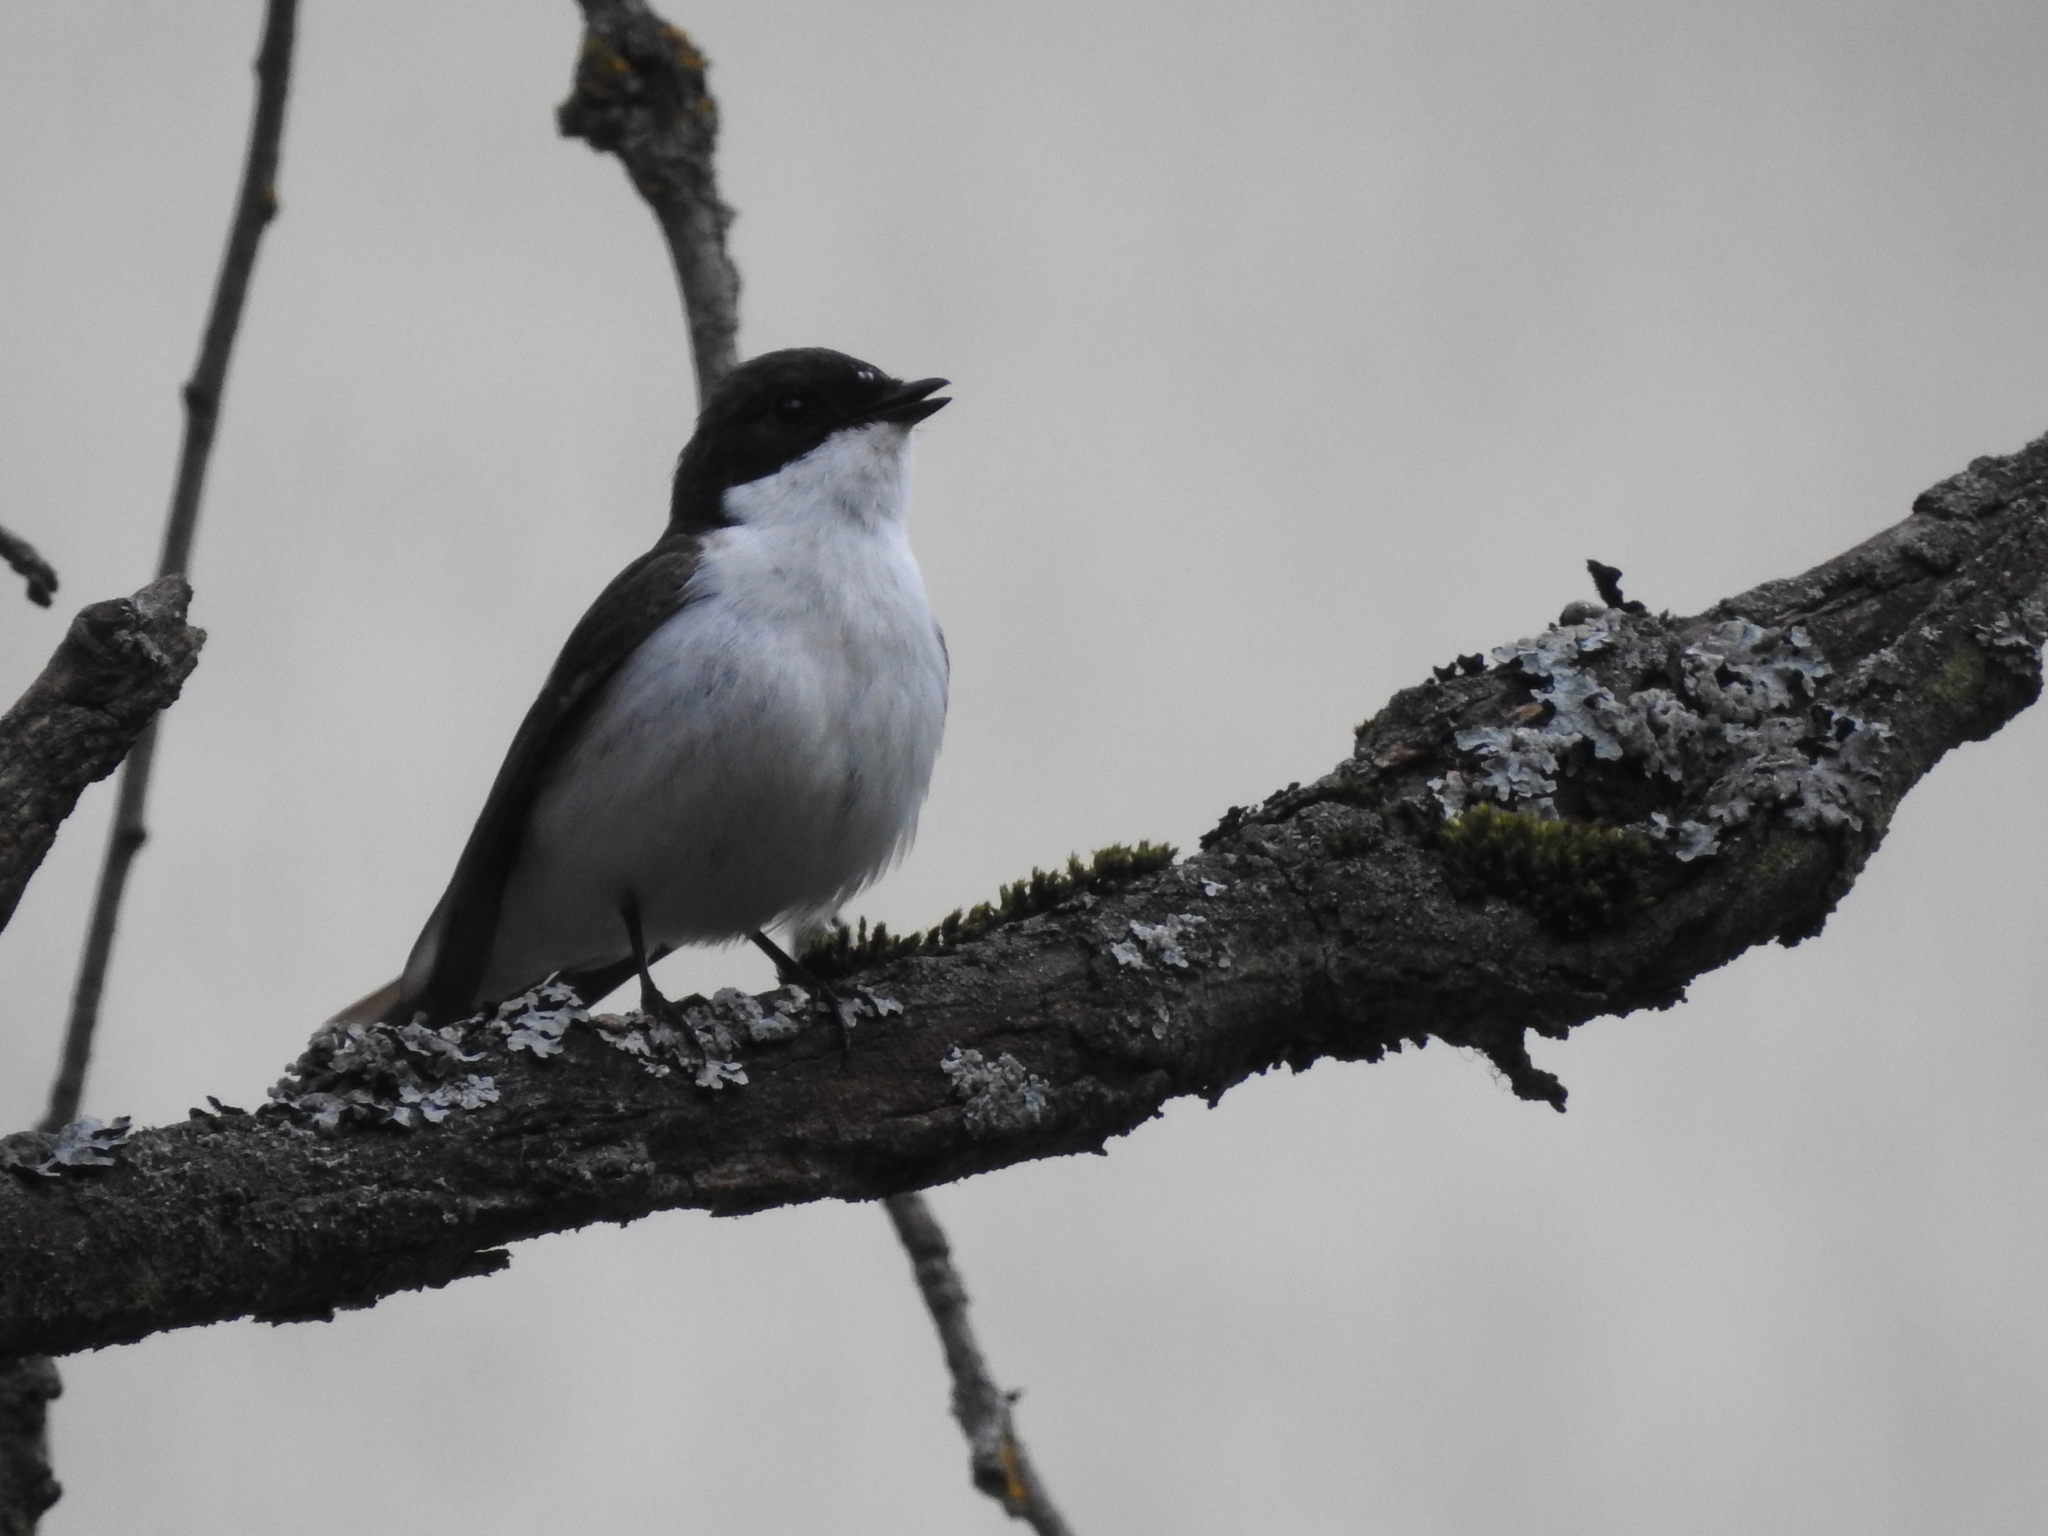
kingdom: Animalia
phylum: Chordata
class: Aves
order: Passeriformes
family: Muscicapidae
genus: Ficedula
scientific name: Ficedula hypoleuca
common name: European pied flycatcher
